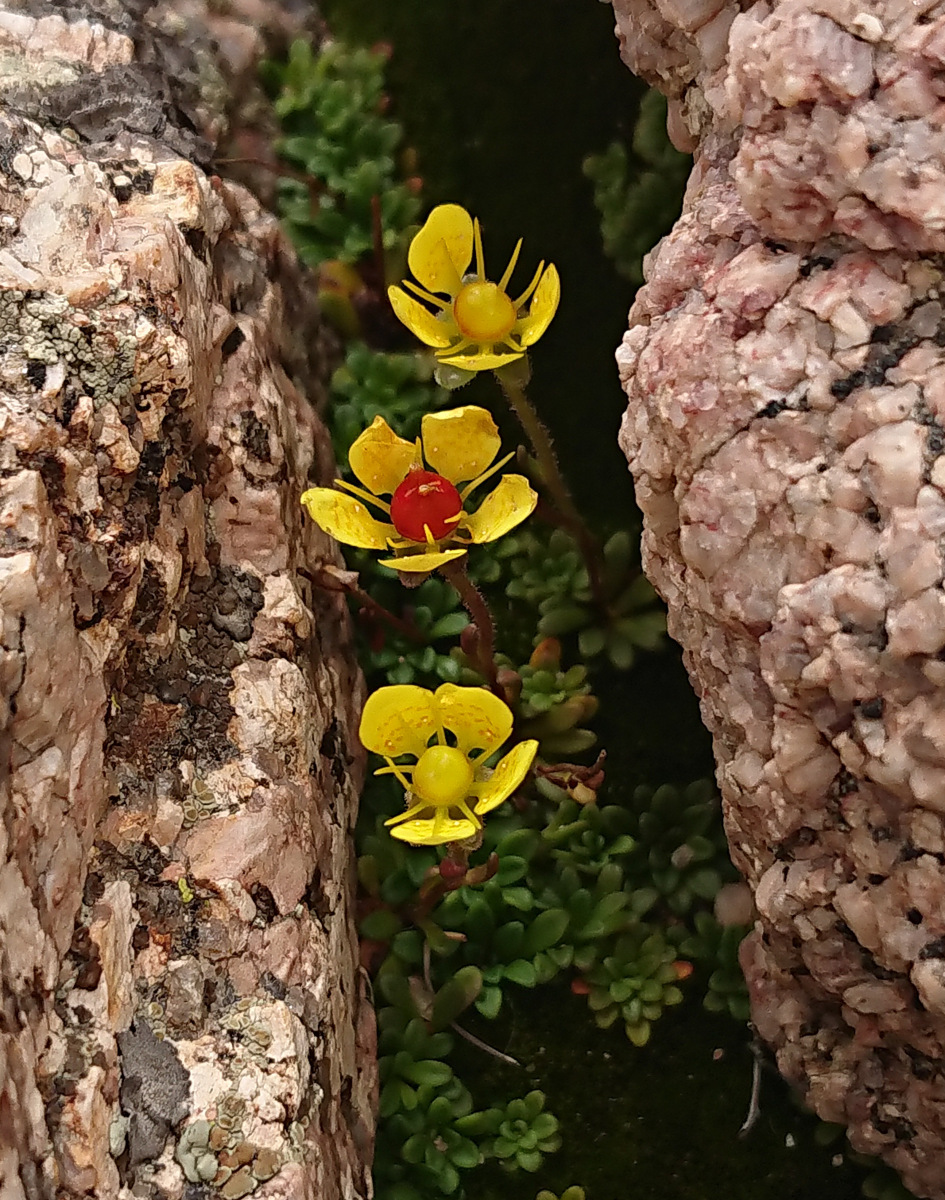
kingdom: Plantae
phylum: Tracheophyta
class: Magnoliopsida
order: Saxifragales
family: Saxifragaceae
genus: Saxifraga
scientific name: Saxifraga chrysantha
